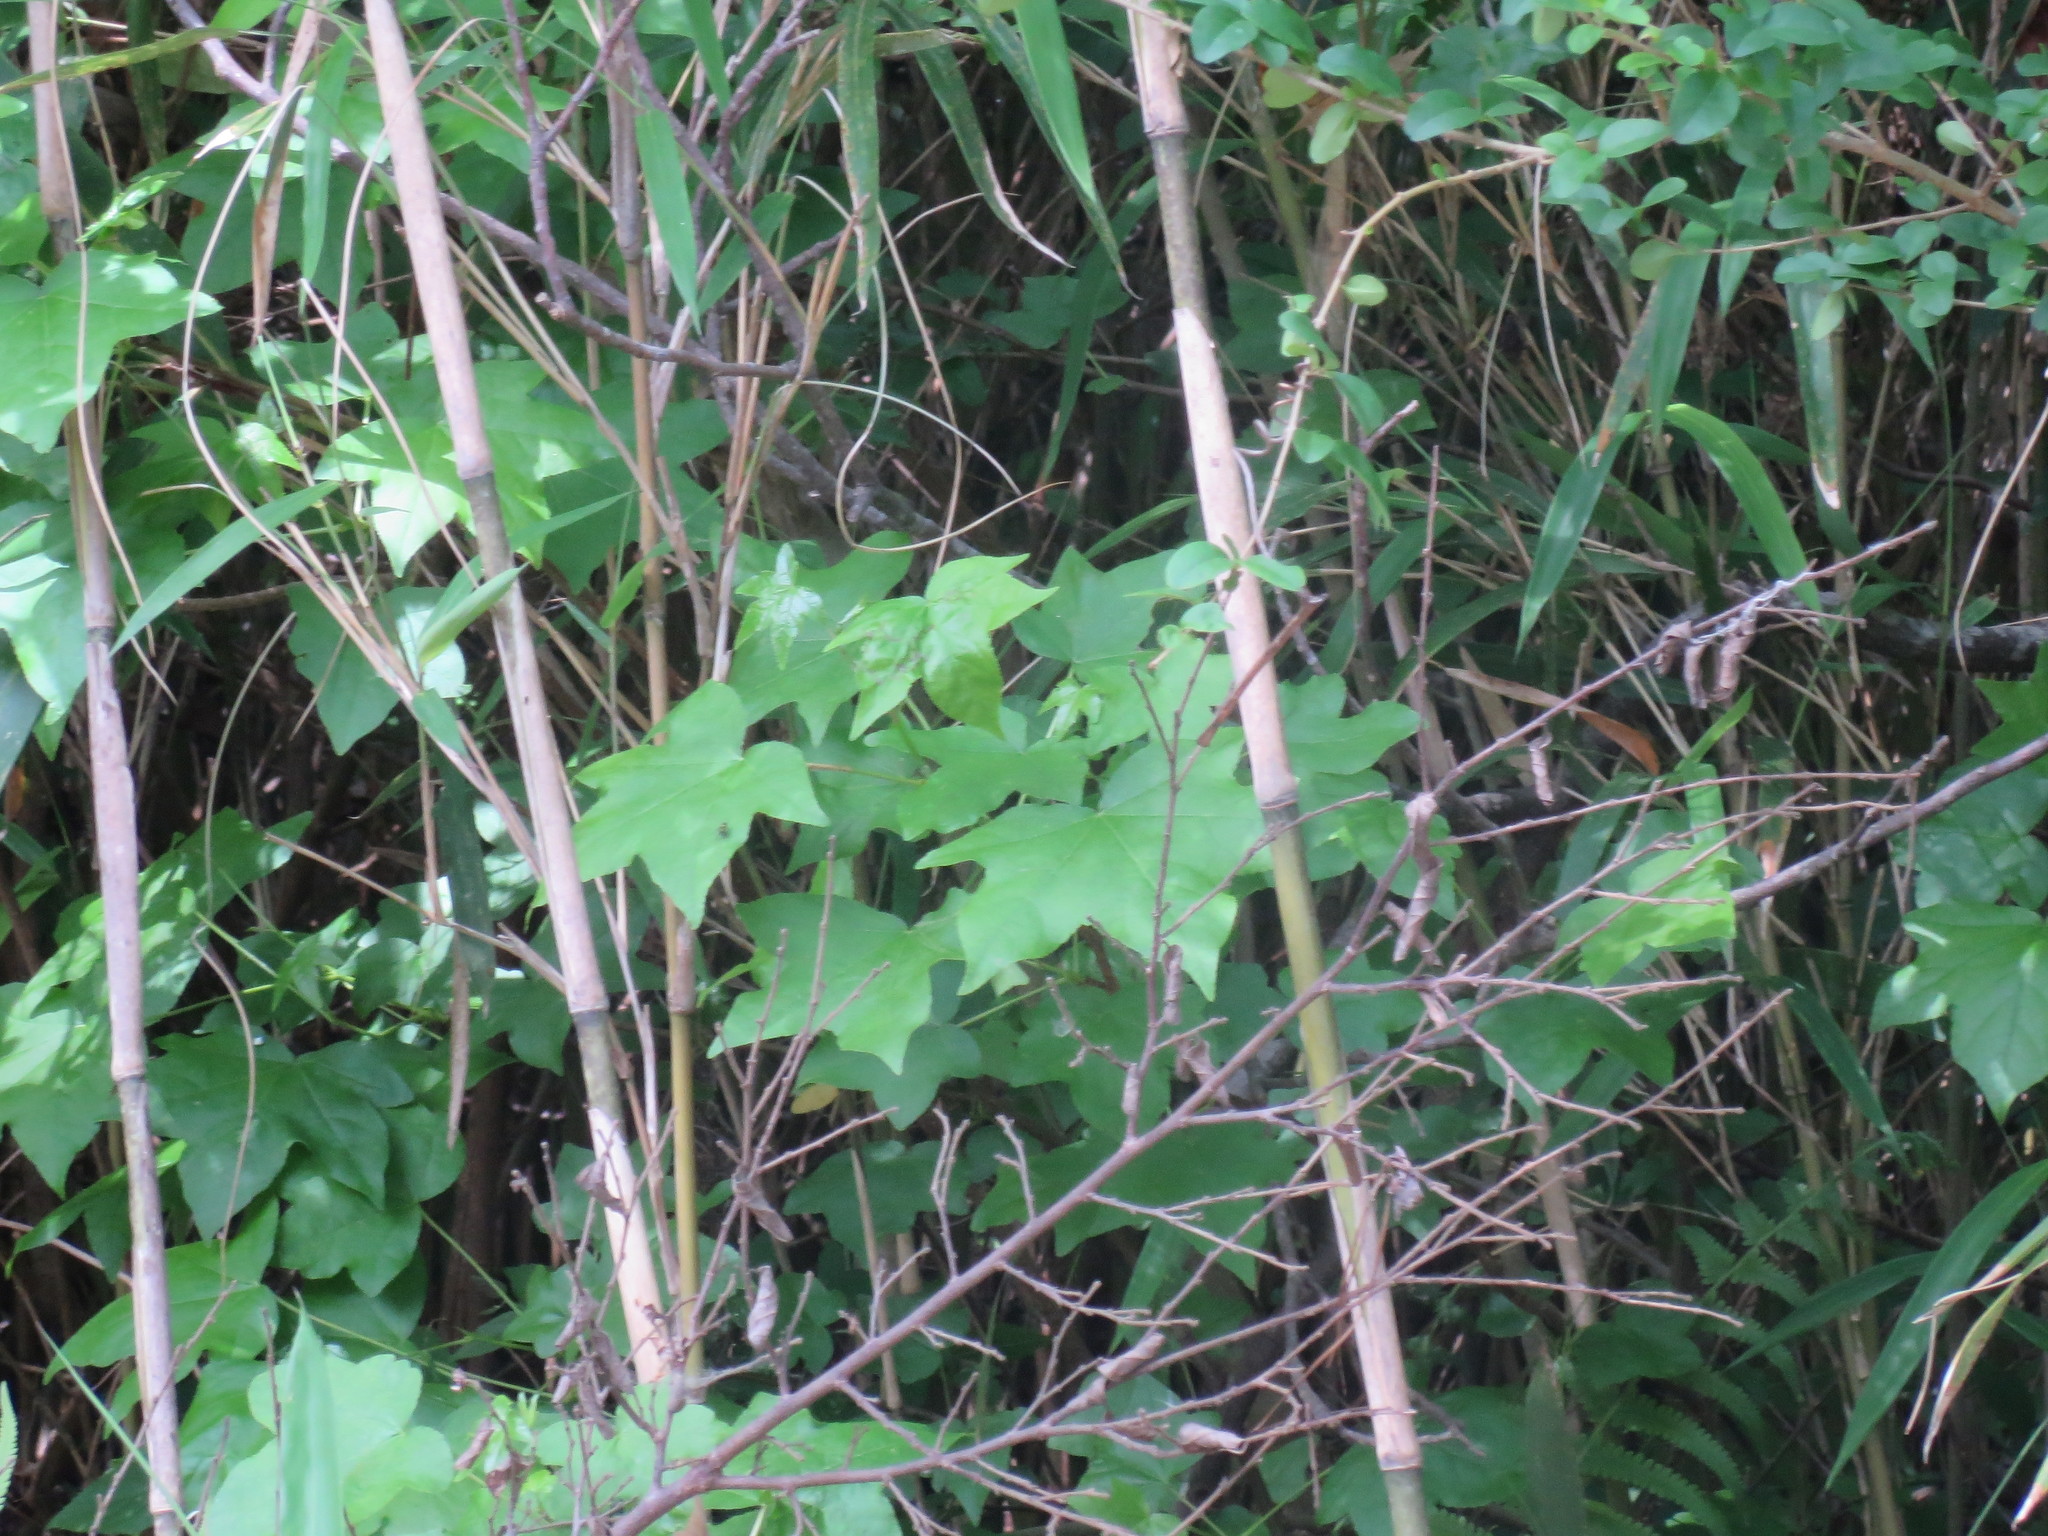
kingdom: Plantae
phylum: Tracheophyta
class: Magnoliopsida
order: Saxifragales
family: Altingiaceae
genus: Liquidambar
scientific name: Liquidambar styraciflua
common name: Sweet gum
